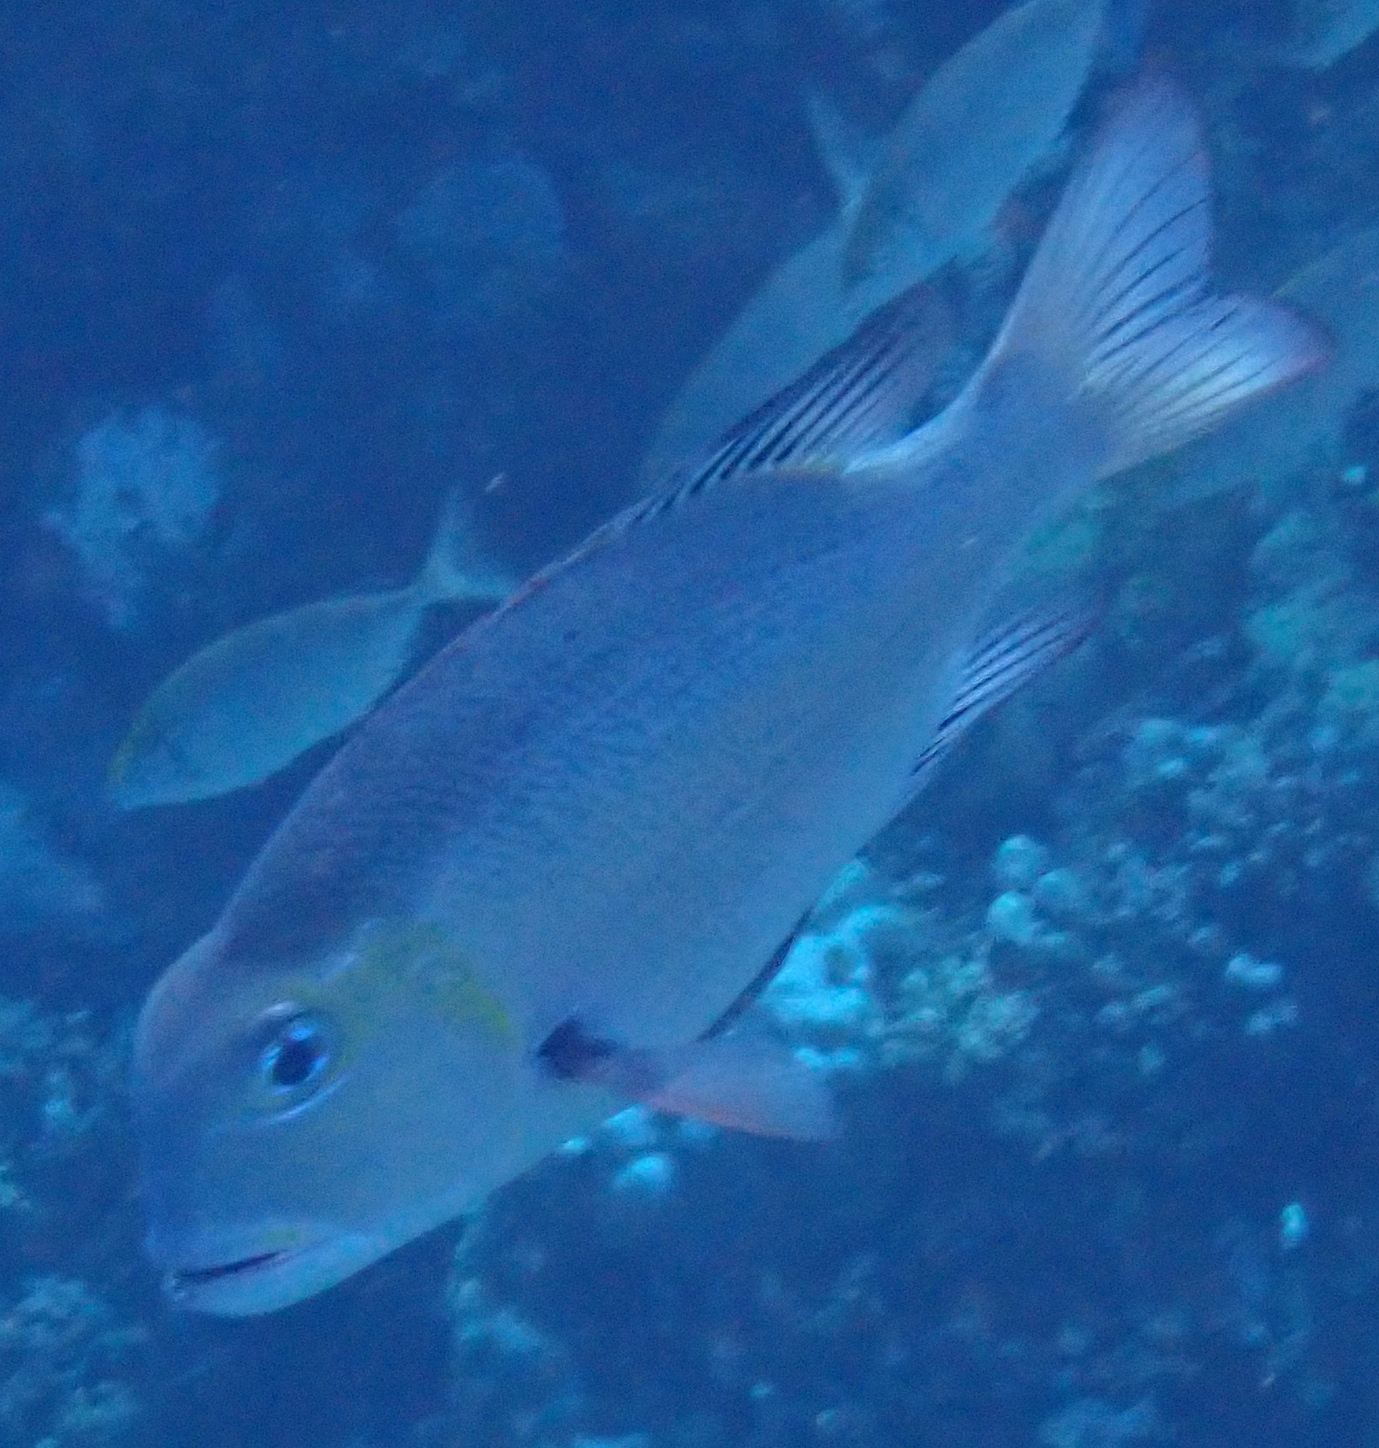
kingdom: Animalia
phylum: Chordata
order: Perciformes
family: Lethrinidae
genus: Monotaxis
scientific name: Monotaxis grandoculis
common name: Bigeye emperor
